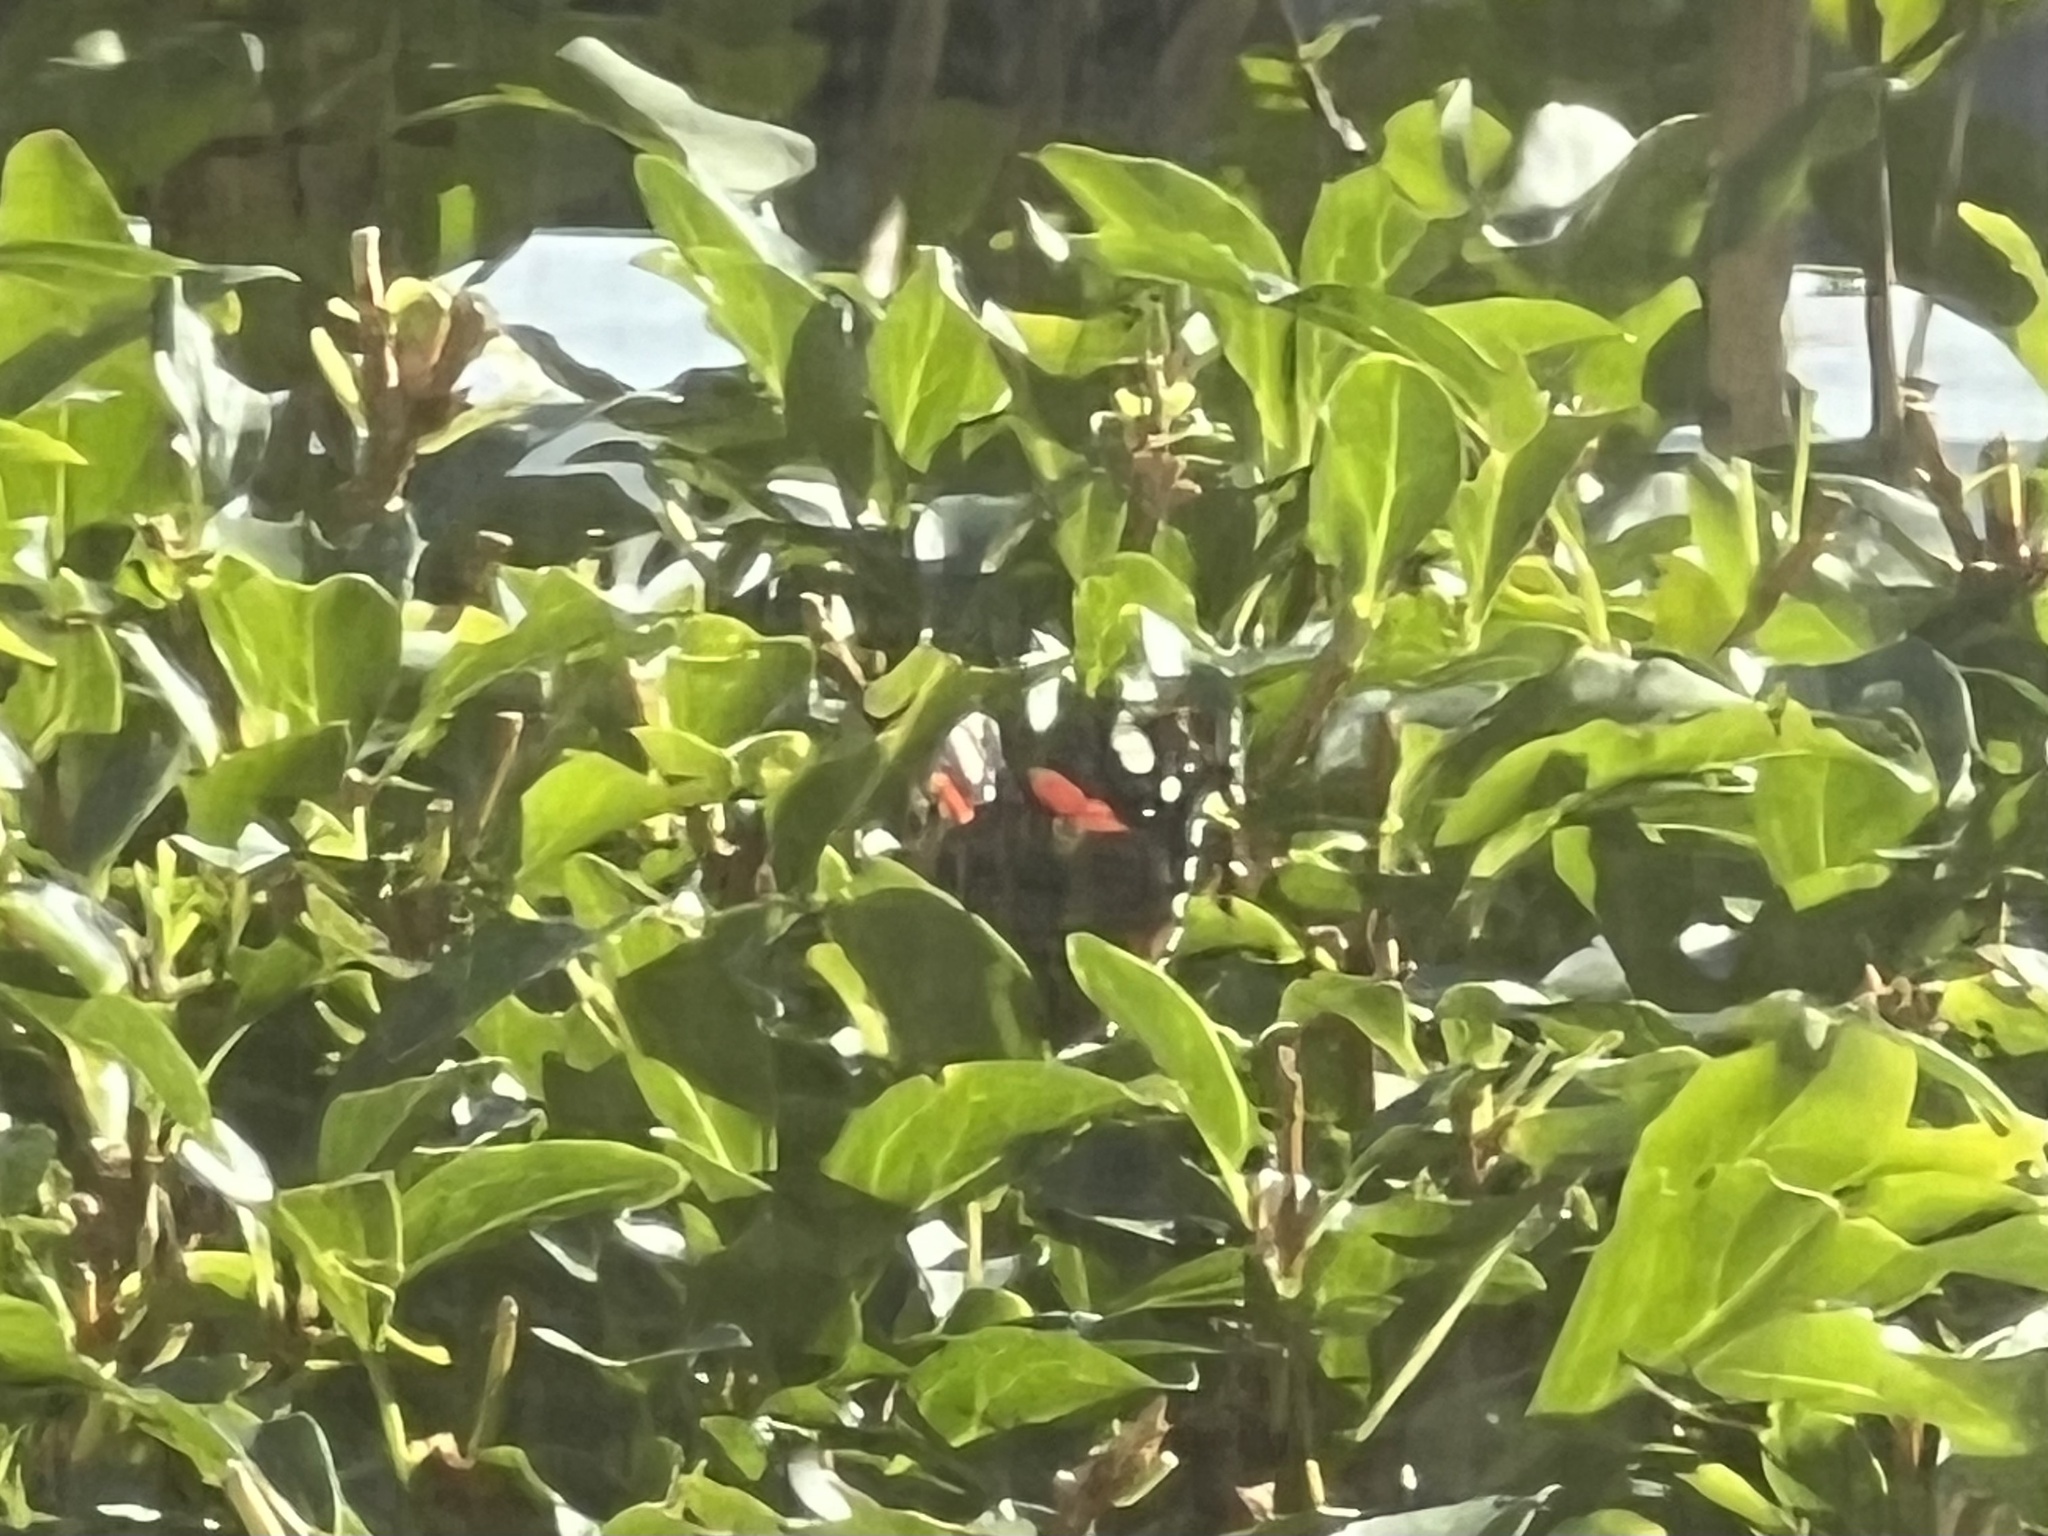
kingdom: Animalia
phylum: Arthropoda
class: Insecta
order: Lepidoptera
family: Nymphalidae
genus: Vanessa
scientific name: Vanessa atalanta
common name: Red admiral
